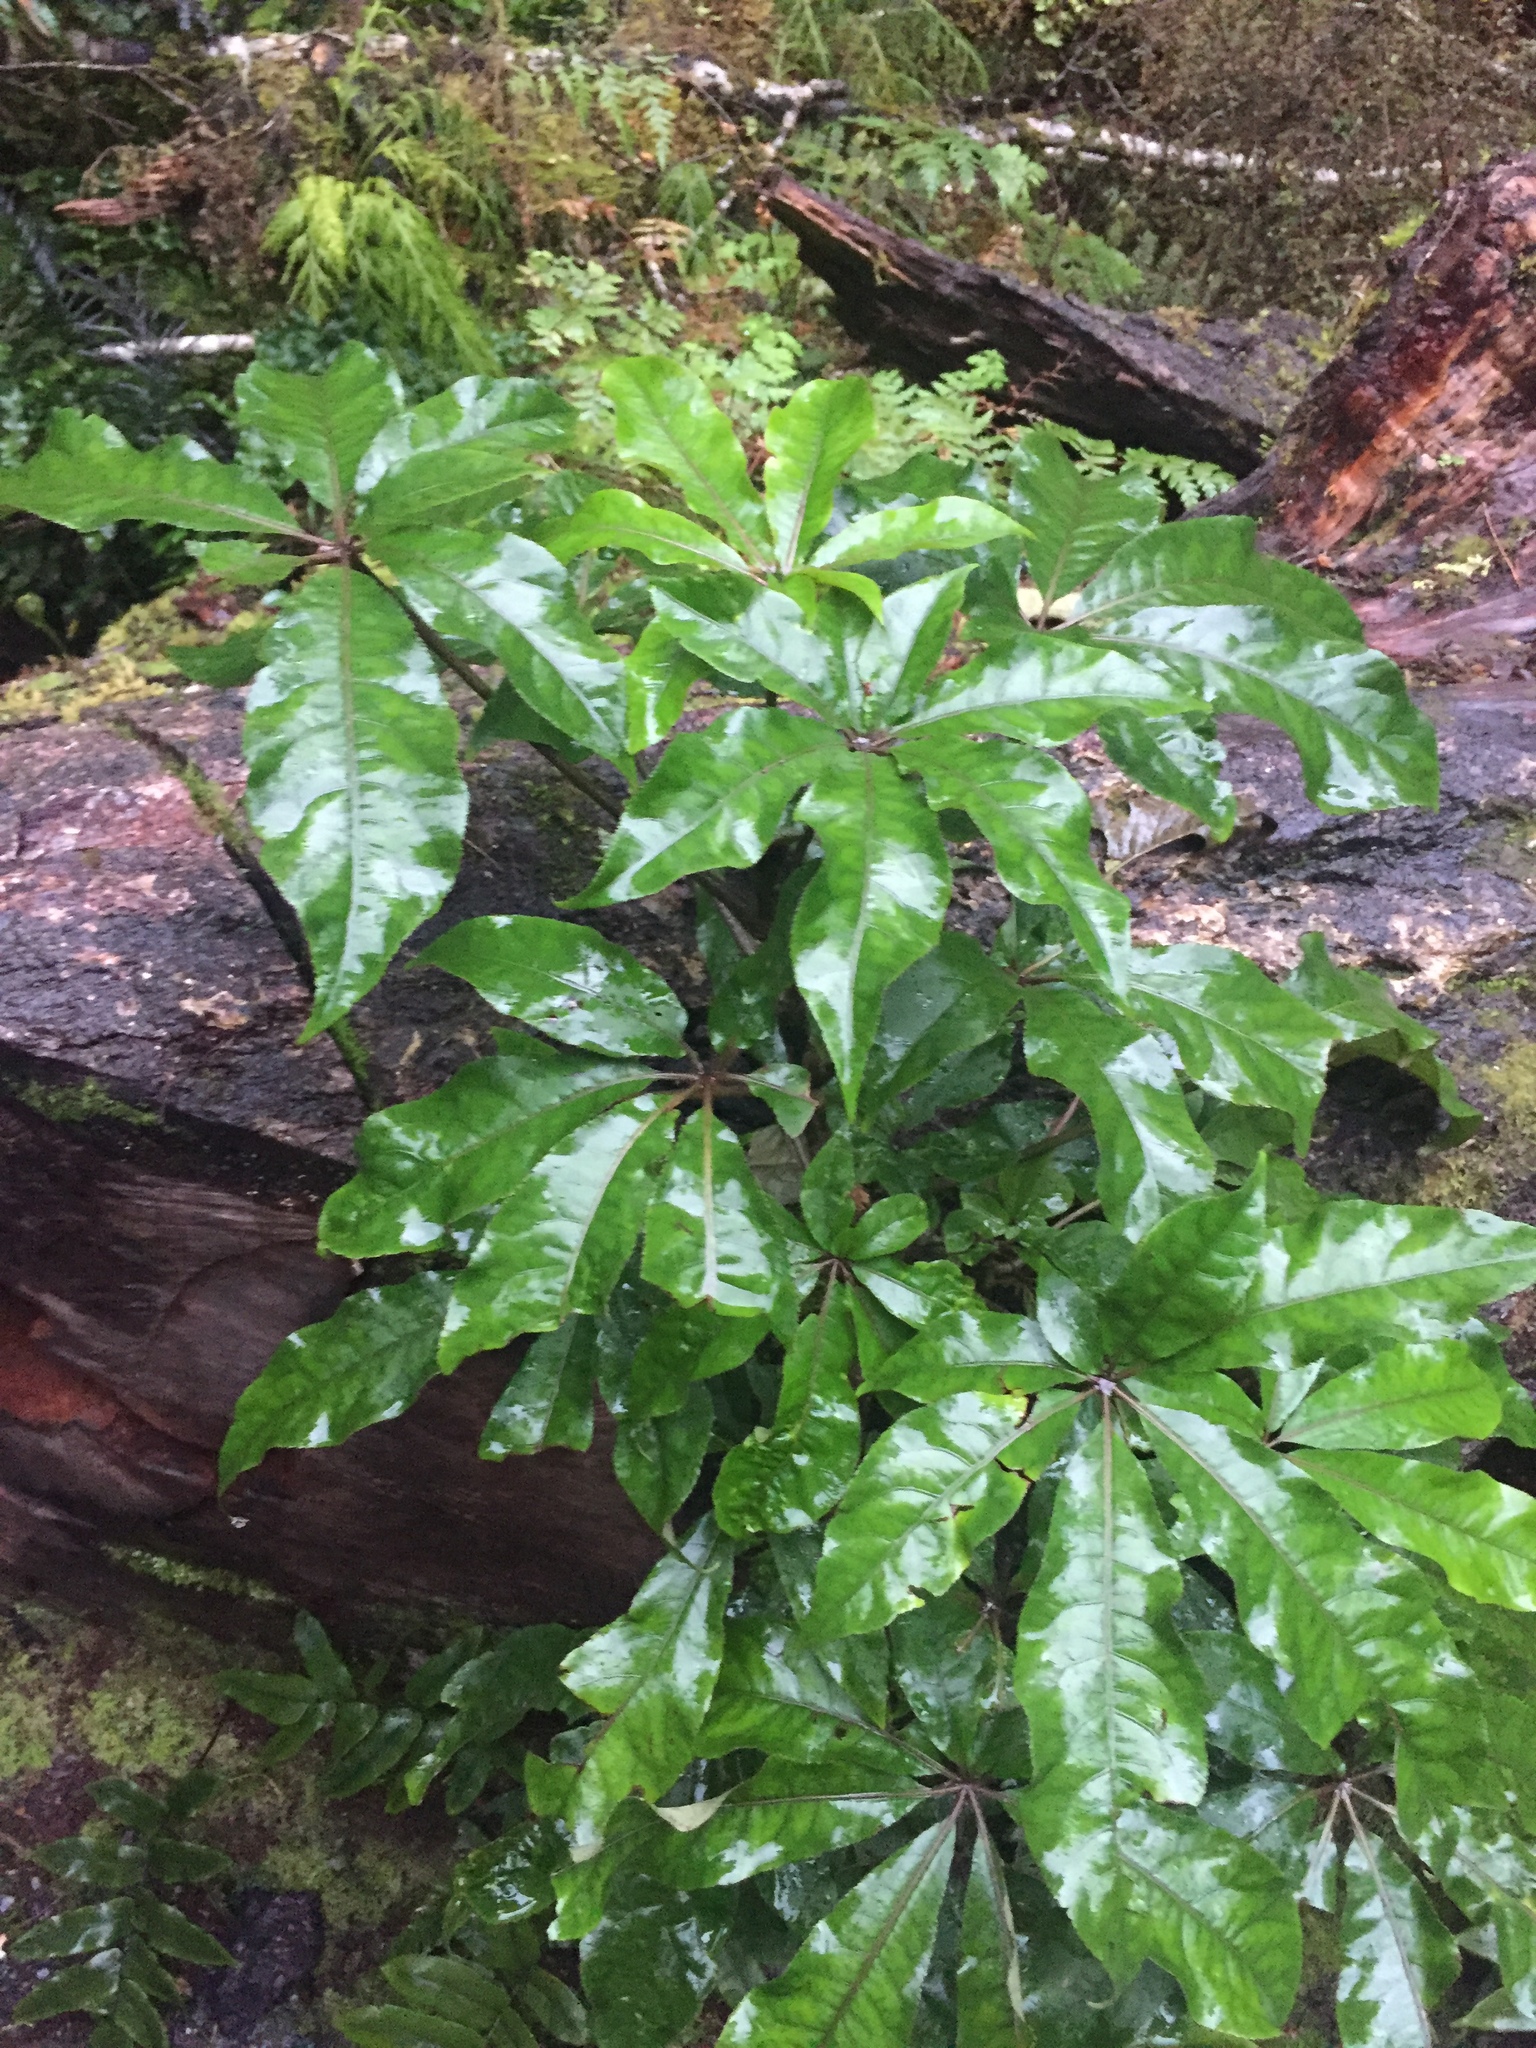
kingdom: Plantae
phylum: Tracheophyta
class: Magnoliopsida
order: Apiales
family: Araliaceae
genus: Schefflera
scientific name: Schefflera digitata
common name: Pate
